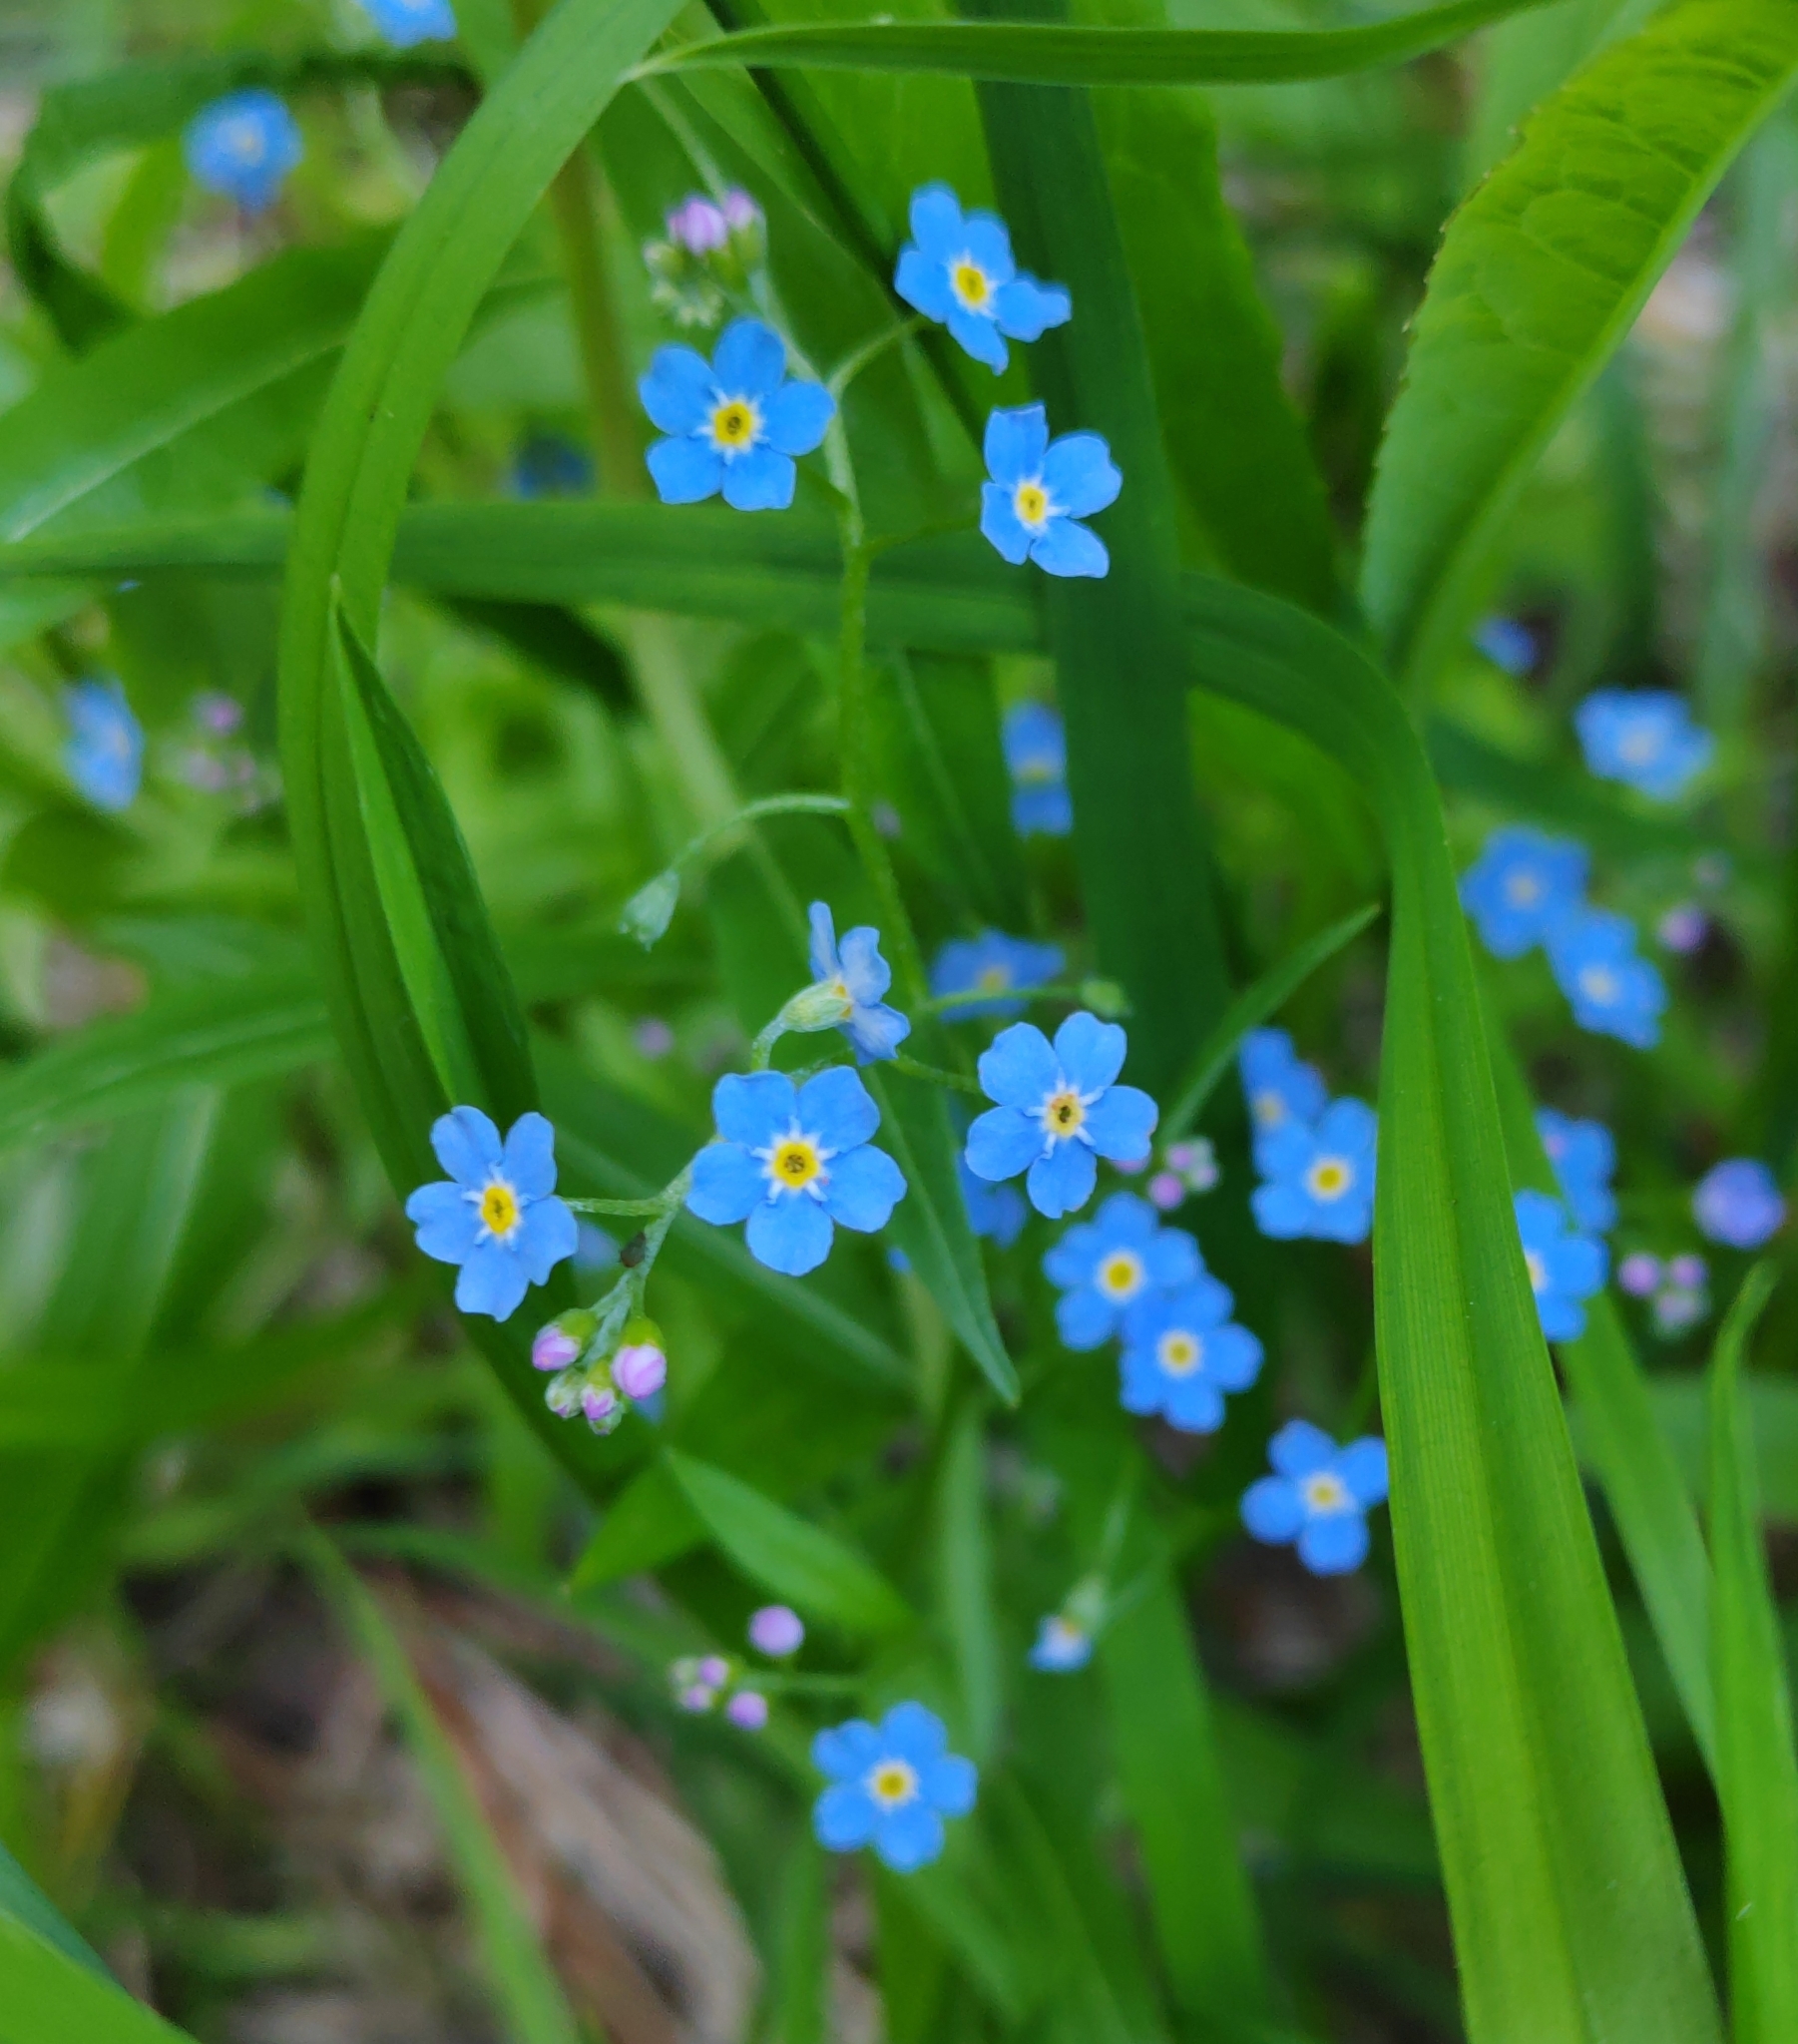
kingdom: Plantae
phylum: Tracheophyta
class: Magnoliopsida
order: Boraginales
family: Boraginaceae
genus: Myosotis
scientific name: Myosotis scorpioides
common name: Water forget-me-not
